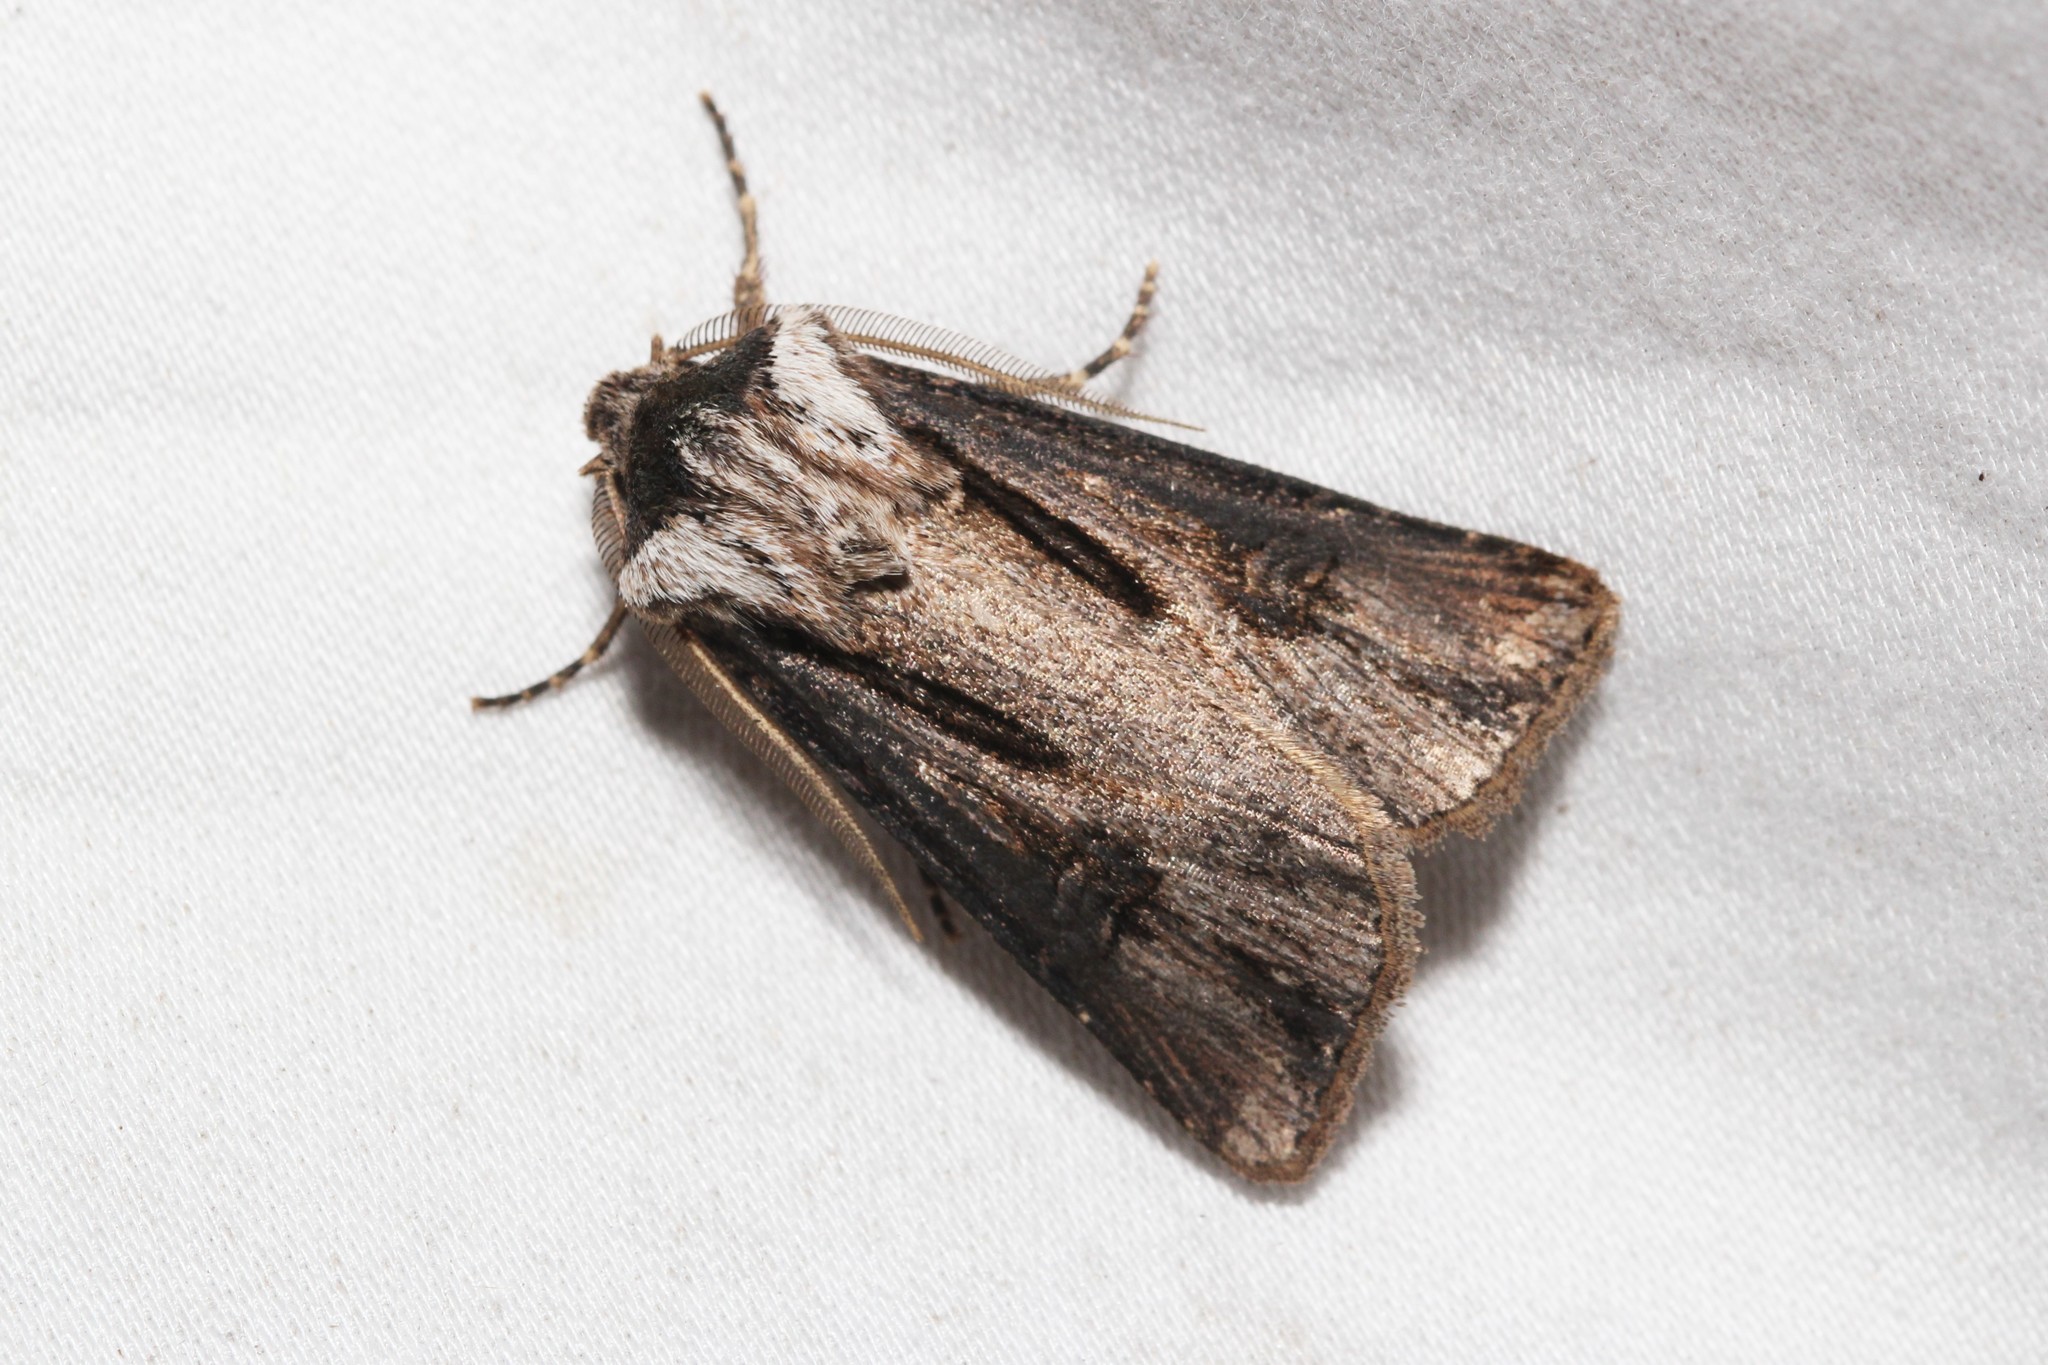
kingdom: Animalia
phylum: Arthropoda
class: Insecta
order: Lepidoptera
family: Noctuidae
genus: Agrotis
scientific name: Agrotis venerabilis
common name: Venerable dart
